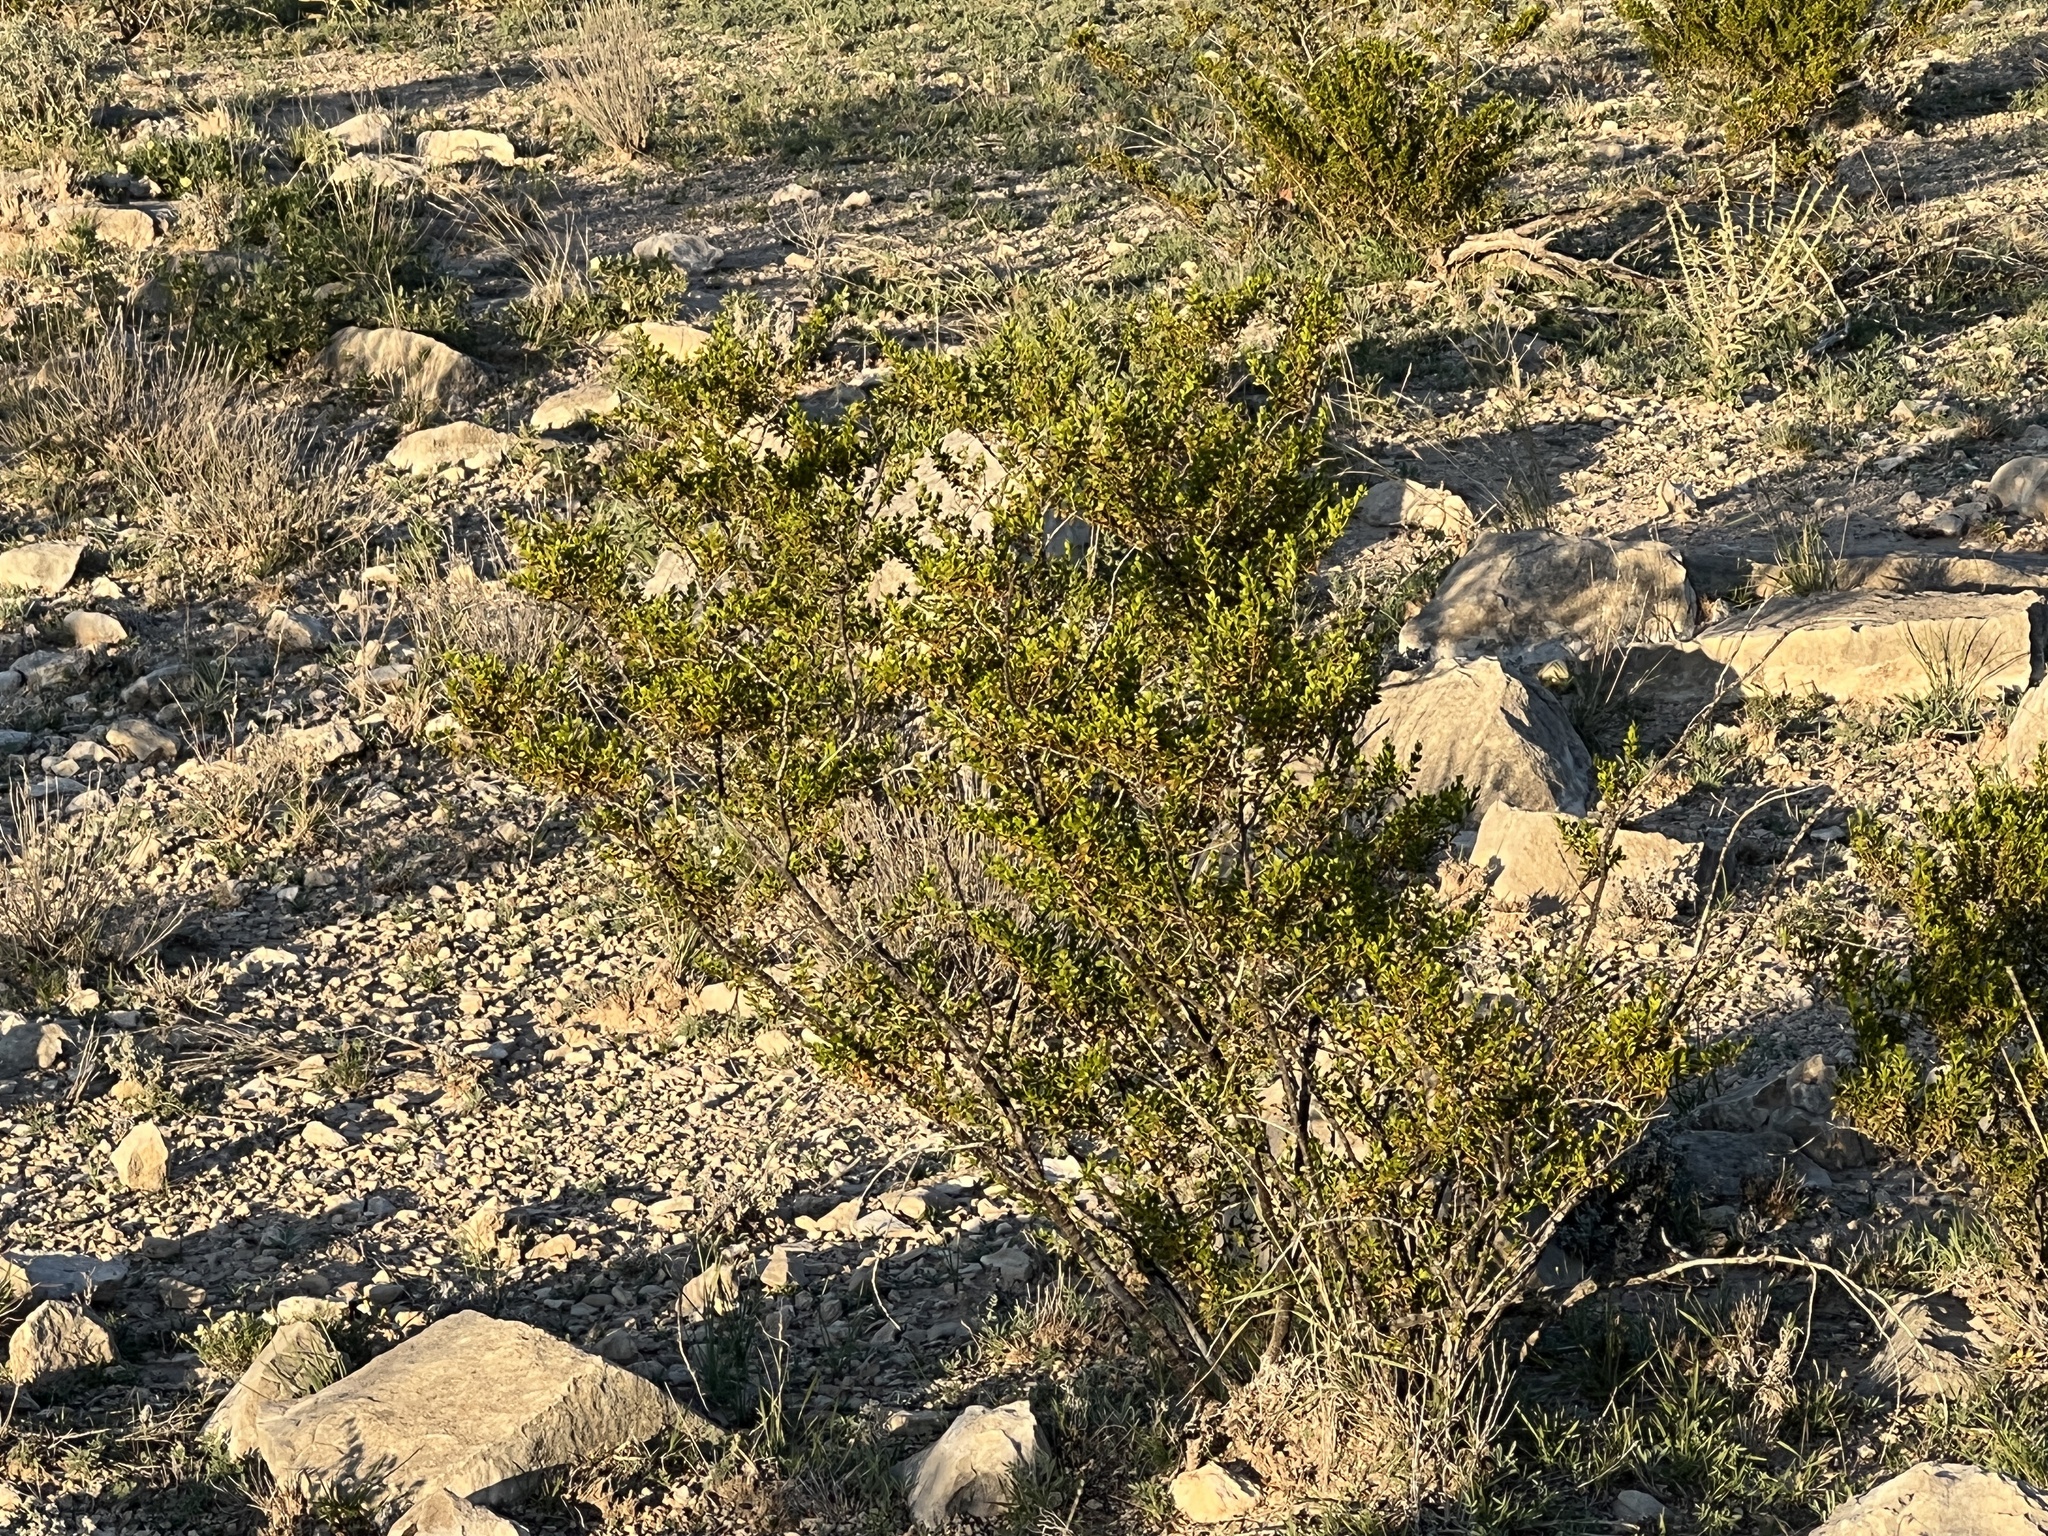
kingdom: Plantae
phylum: Tracheophyta
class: Magnoliopsida
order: Zygophyllales
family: Zygophyllaceae
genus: Larrea
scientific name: Larrea tridentata
